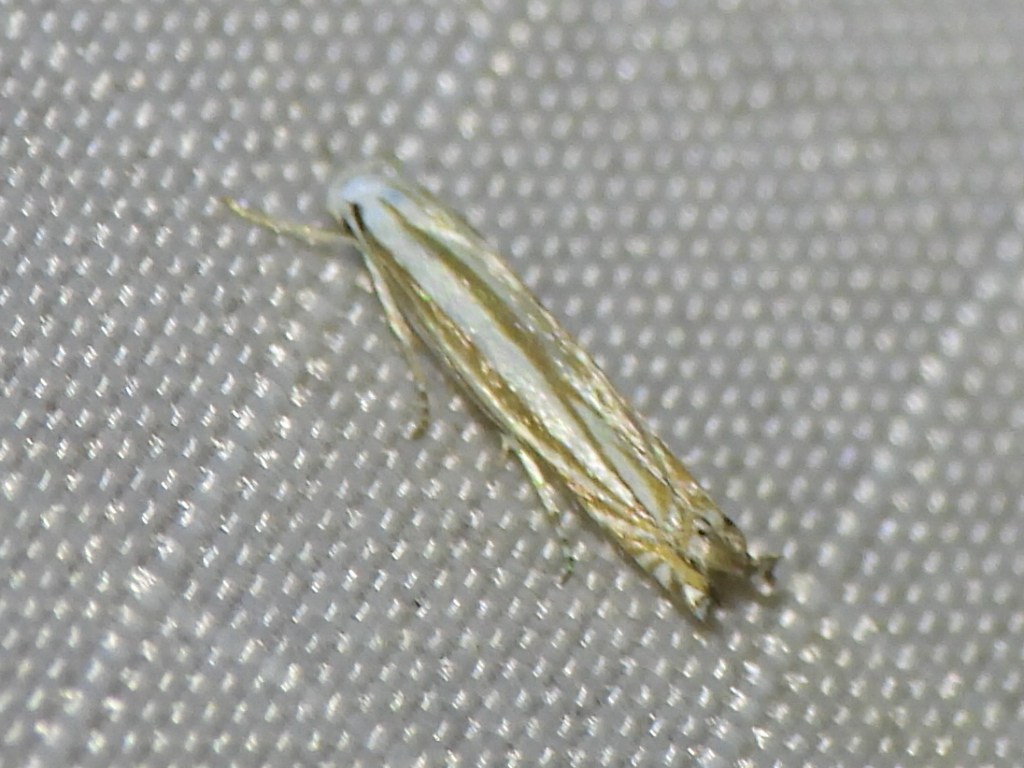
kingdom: Animalia
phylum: Arthropoda
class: Insecta
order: Lepidoptera
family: Gelechiidae
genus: Polyhymno
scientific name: Polyhymno luteostrigella
